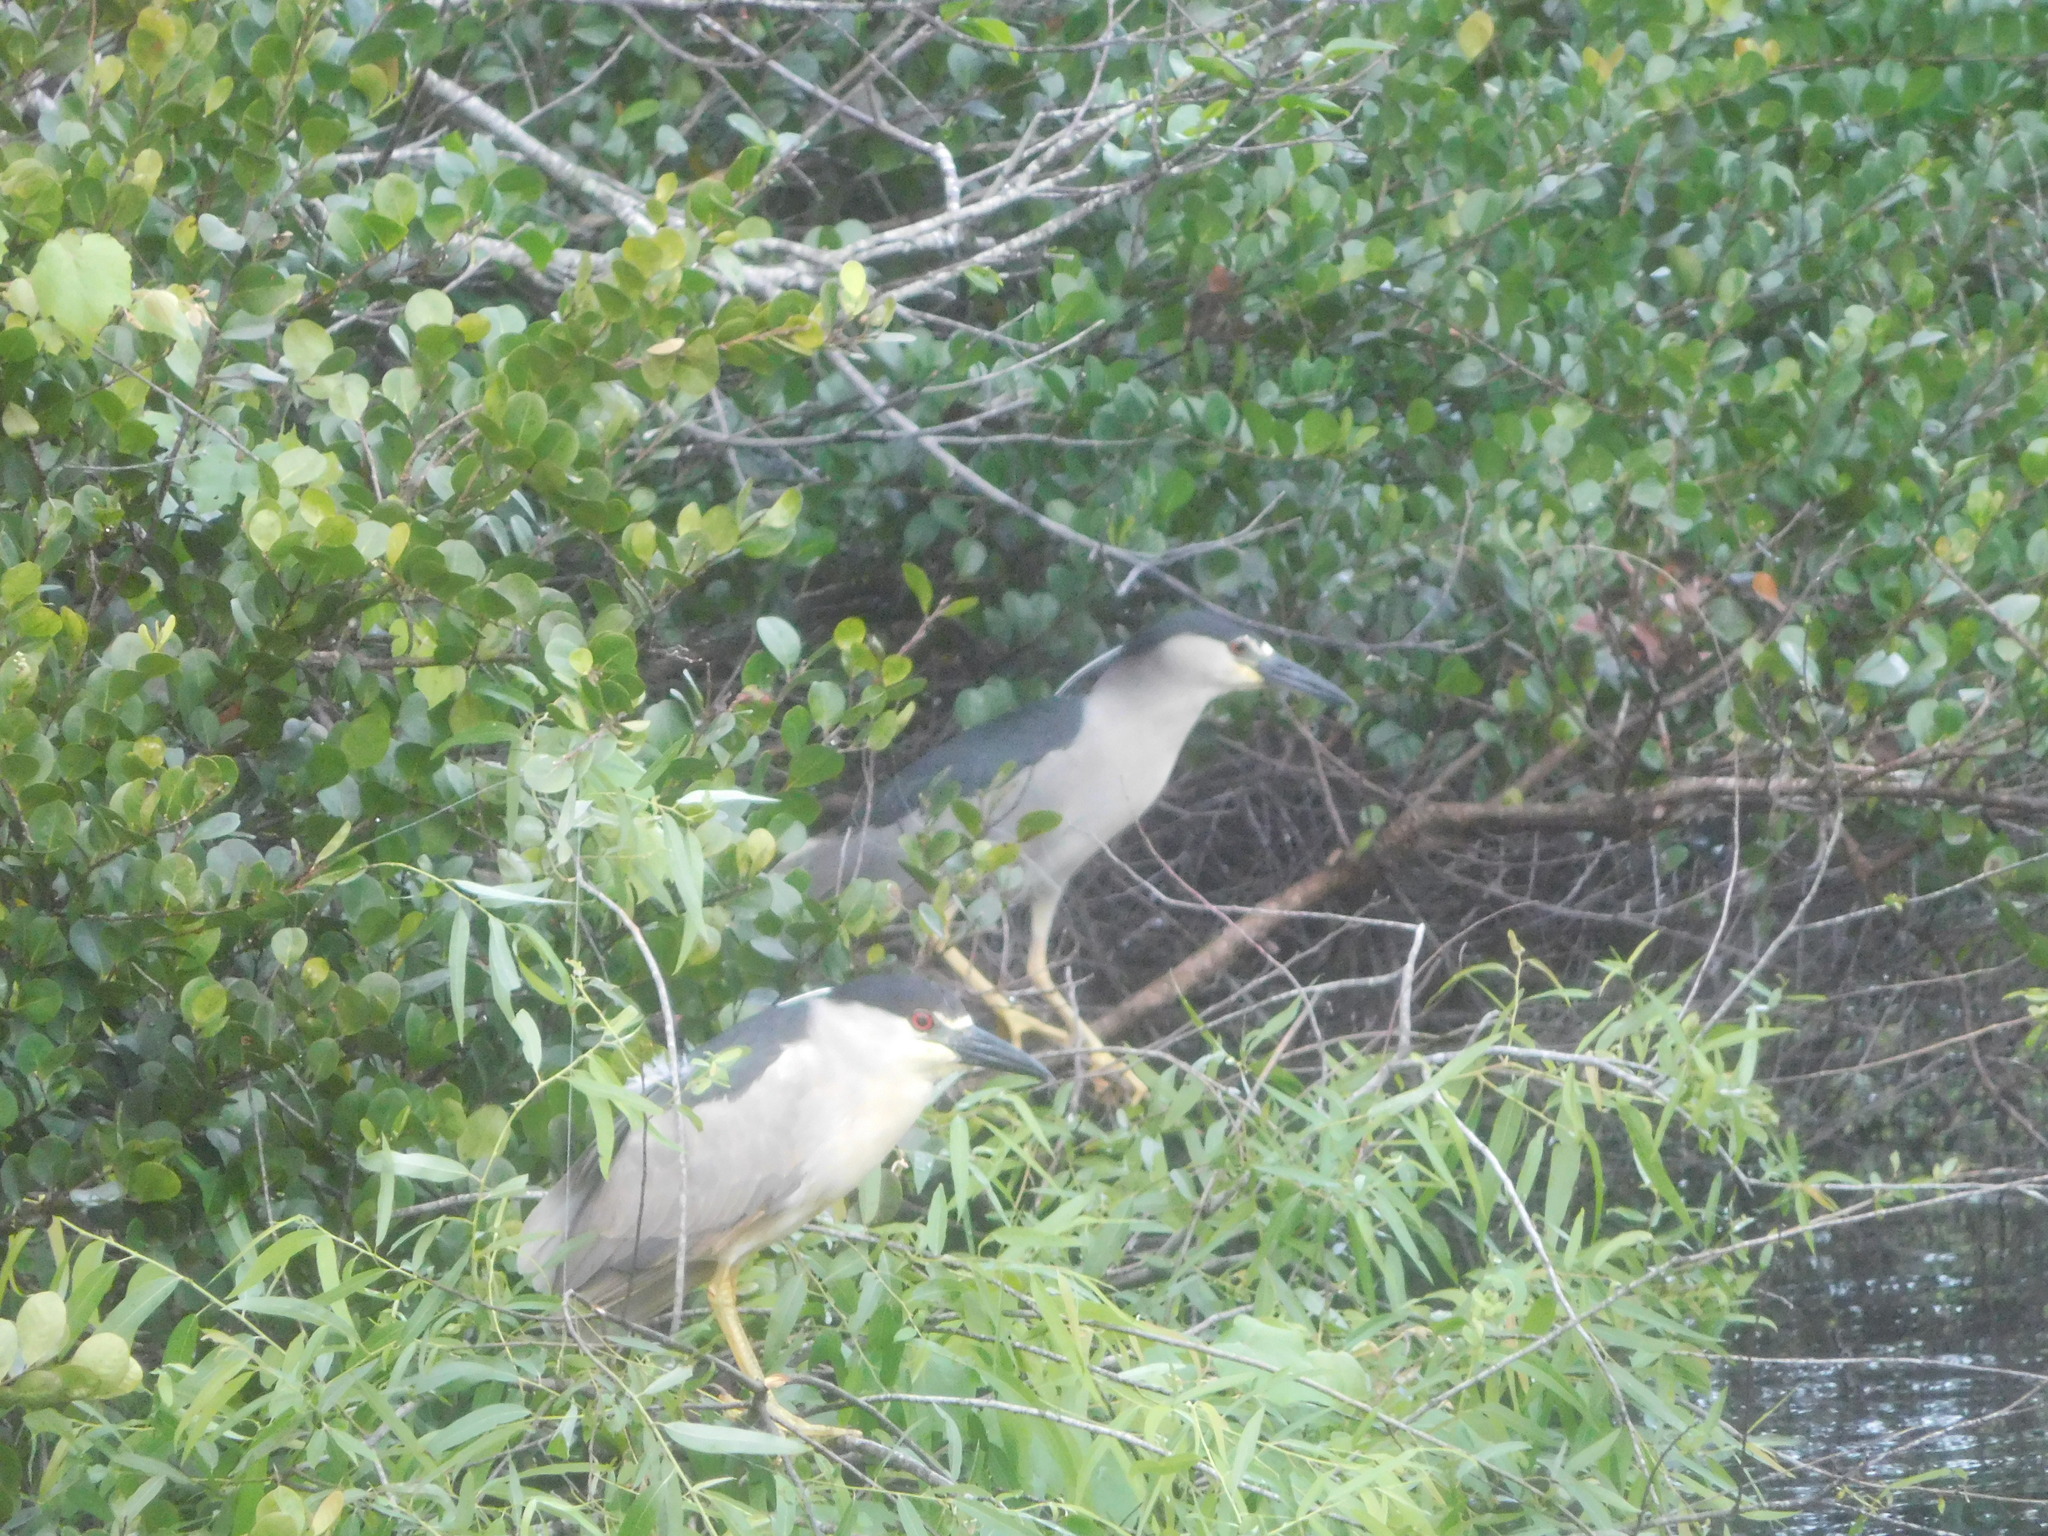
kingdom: Animalia
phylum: Chordata
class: Aves
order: Pelecaniformes
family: Ardeidae
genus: Nycticorax
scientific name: Nycticorax nycticorax
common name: Black-crowned night heron
